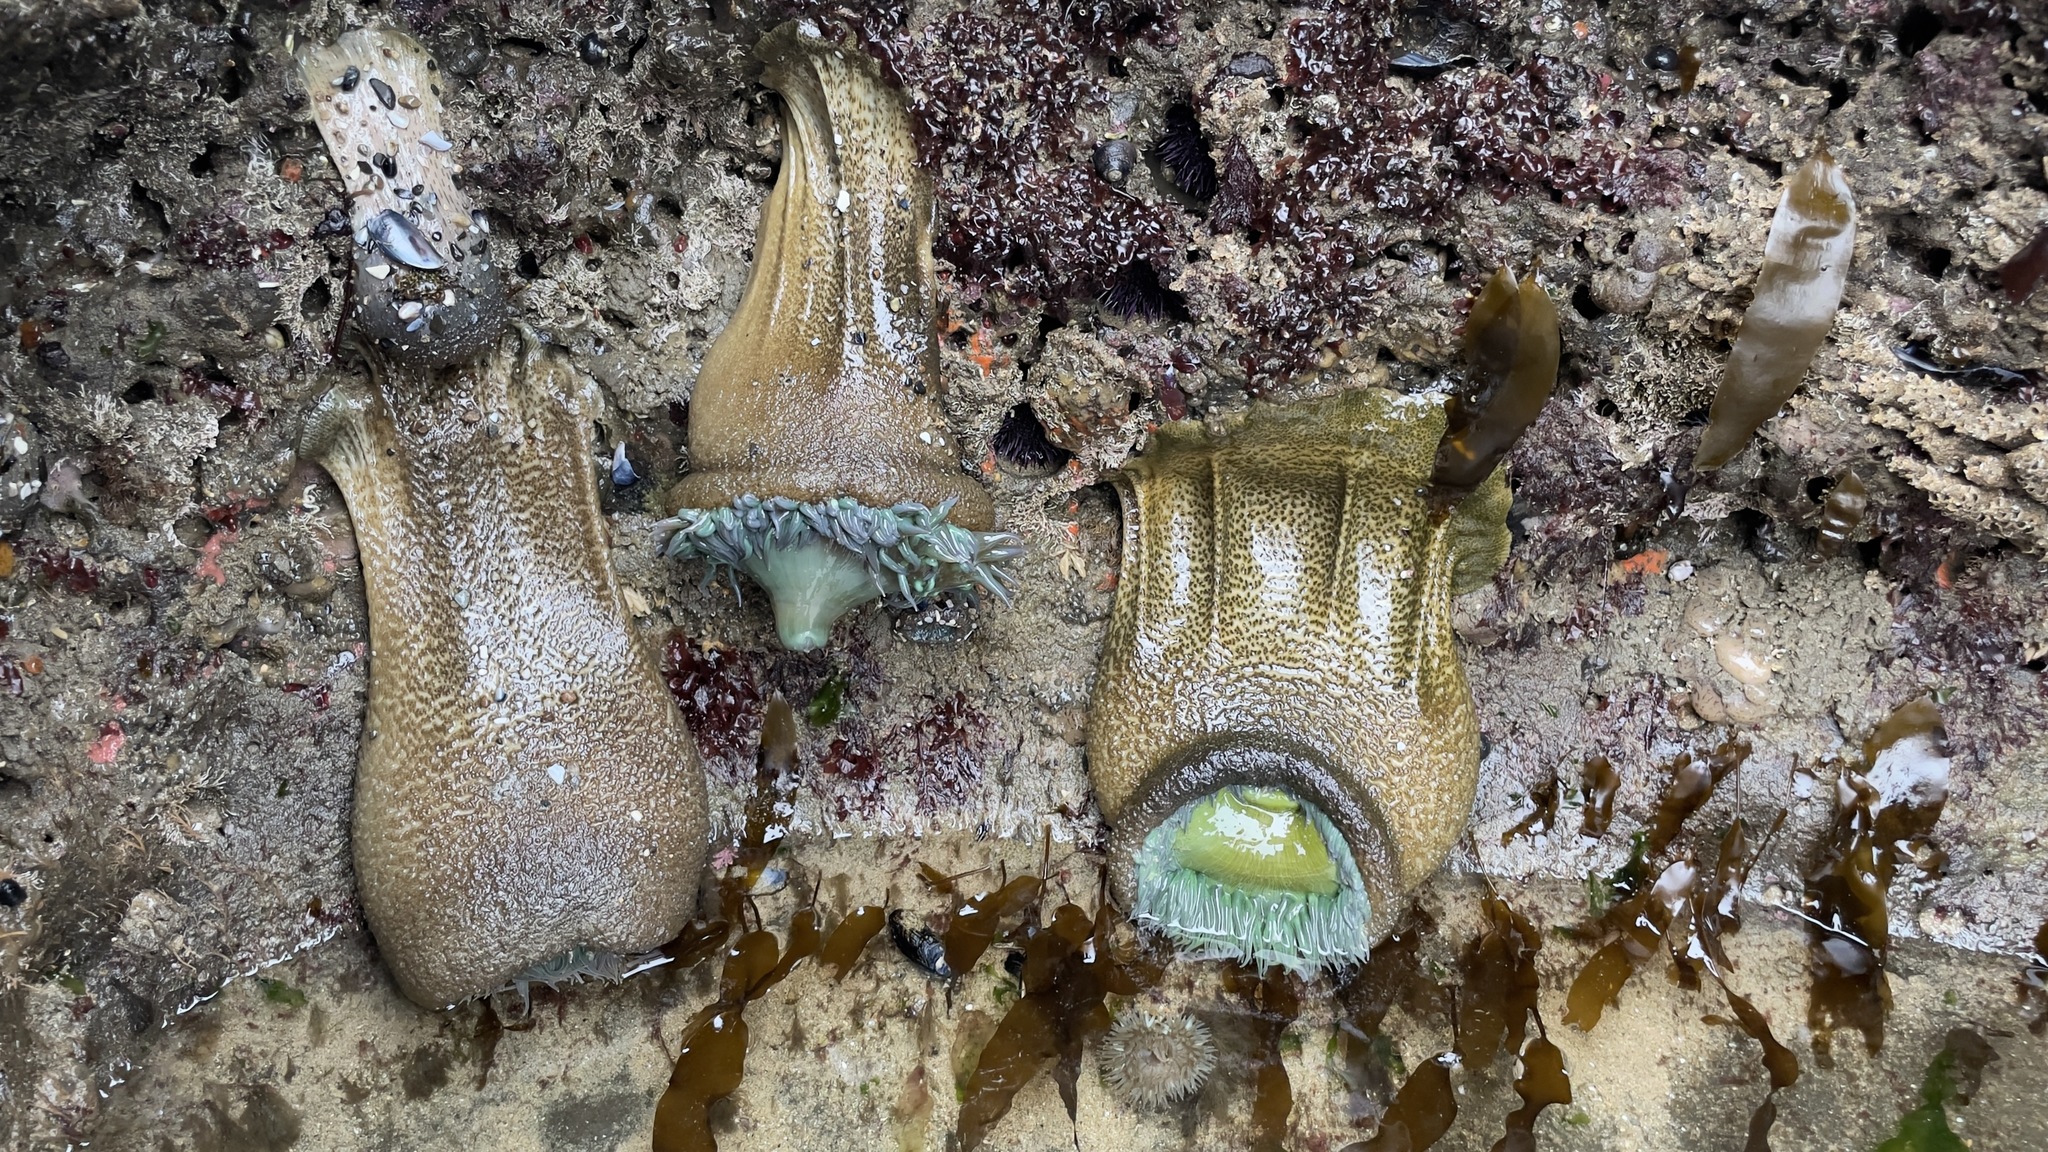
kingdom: Animalia
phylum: Cnidaria
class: Anthozoa
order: Actiniaria
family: Actiniidae
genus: Anthopleura
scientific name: Anthopleura xanthogrammica
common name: Giant green anemone
